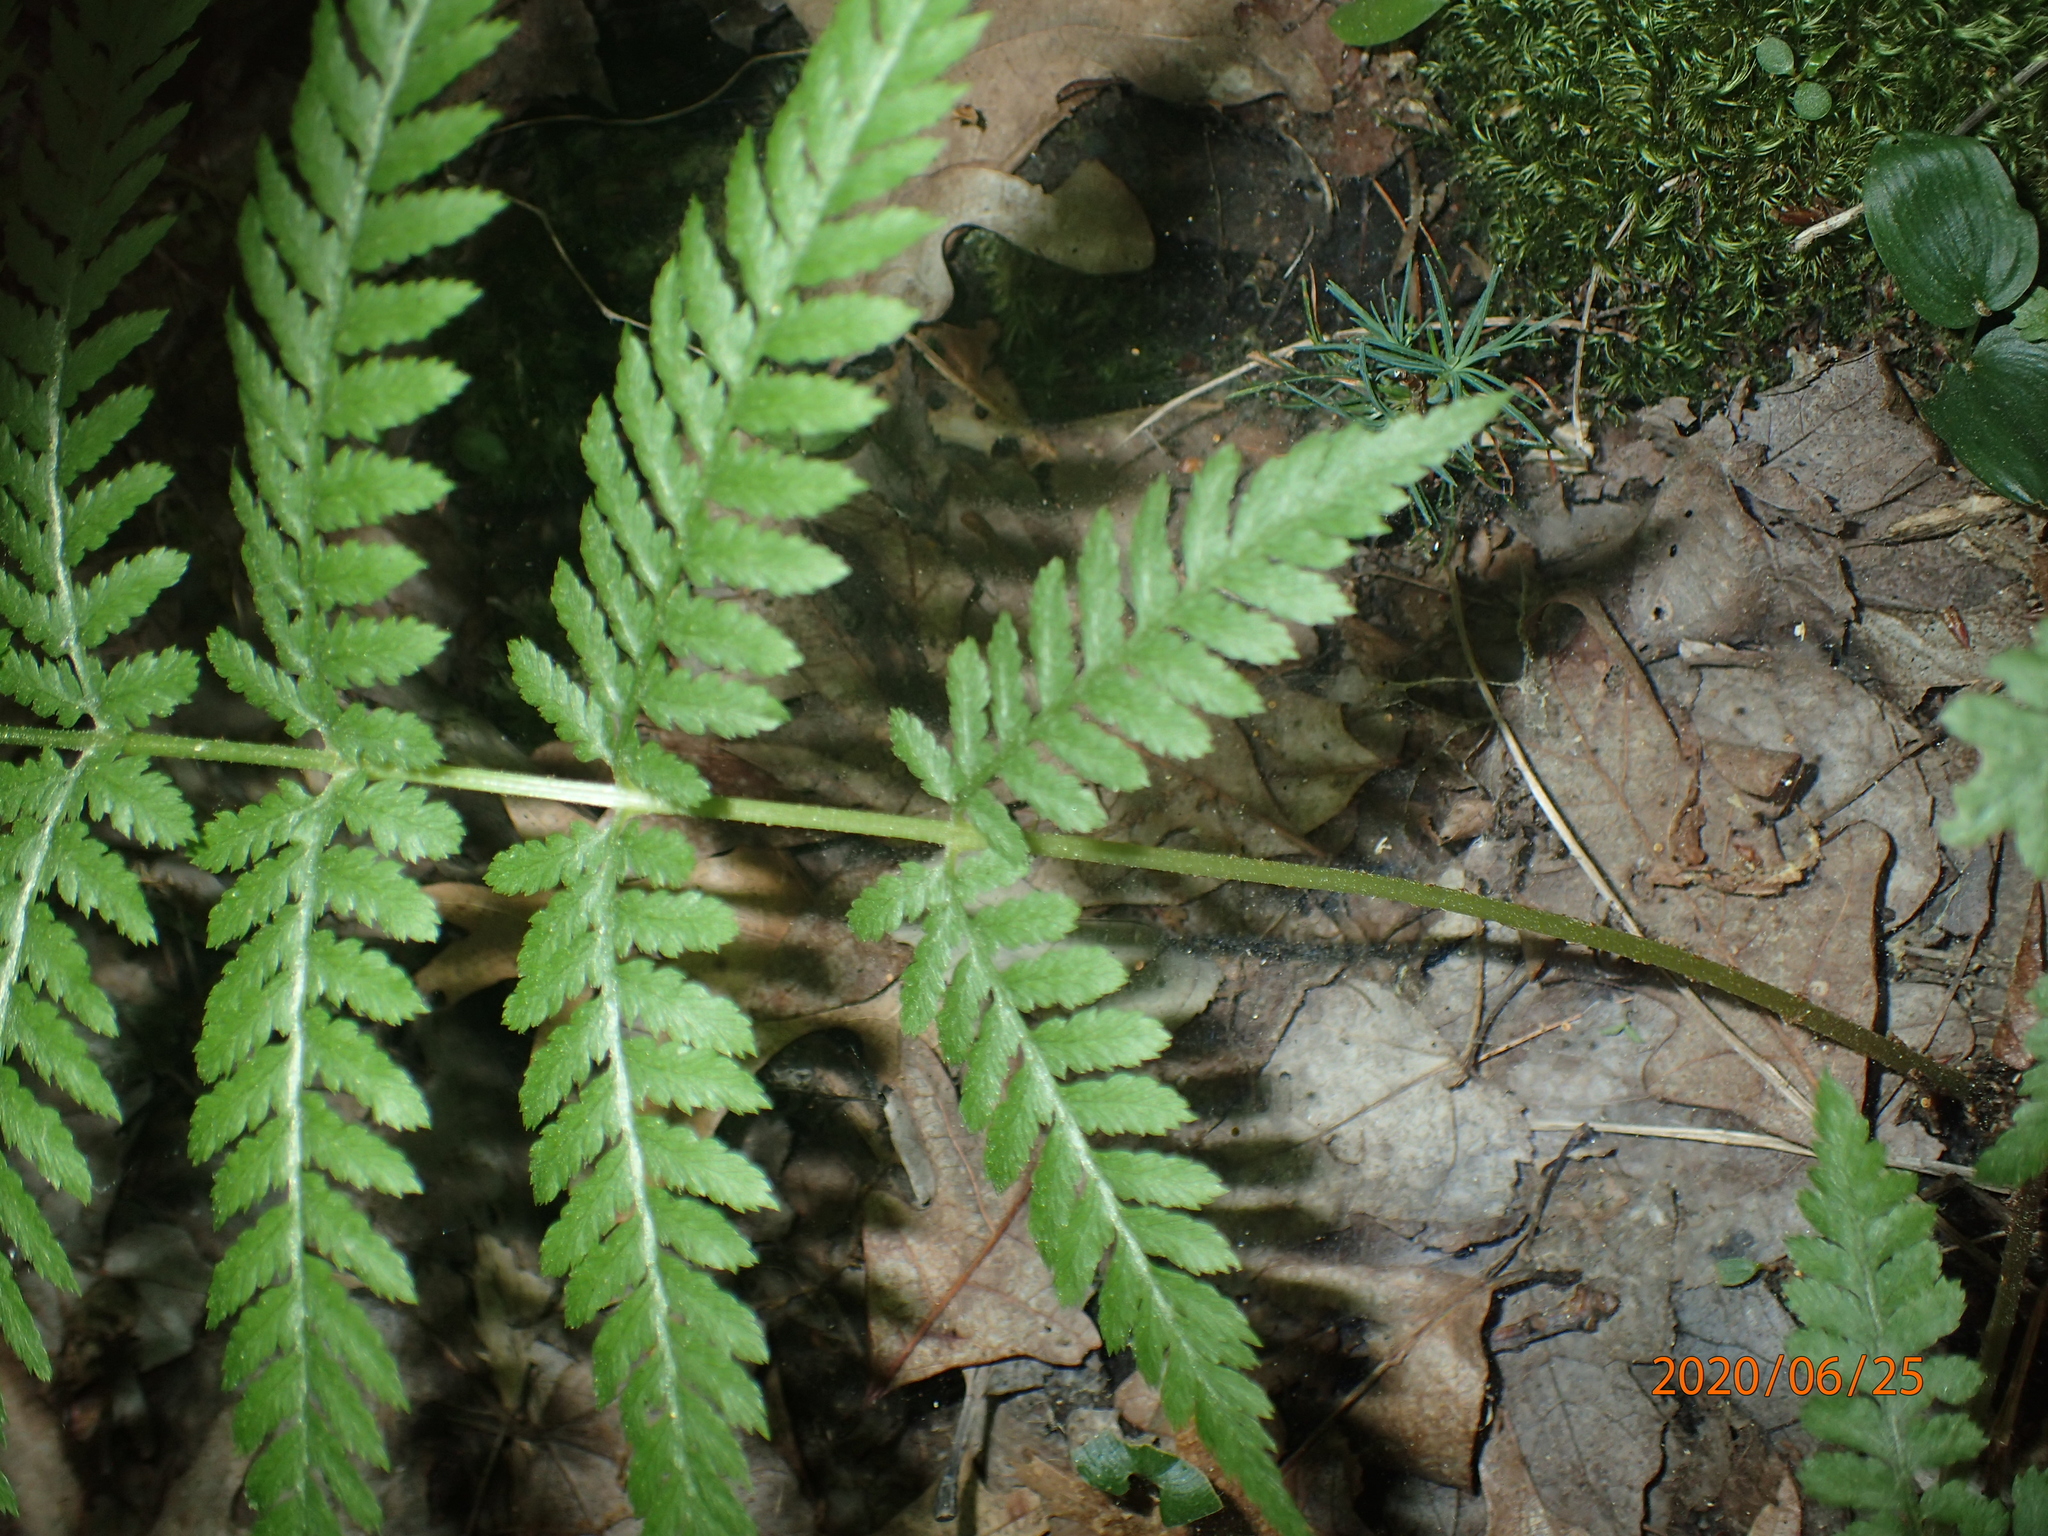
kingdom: Plantae
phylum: Tracheophyta
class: Polypodiopsida
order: Polypodiales
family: Athyriaceae
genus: Athyrium
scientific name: Athyrium angustum
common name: Northern lady fern
